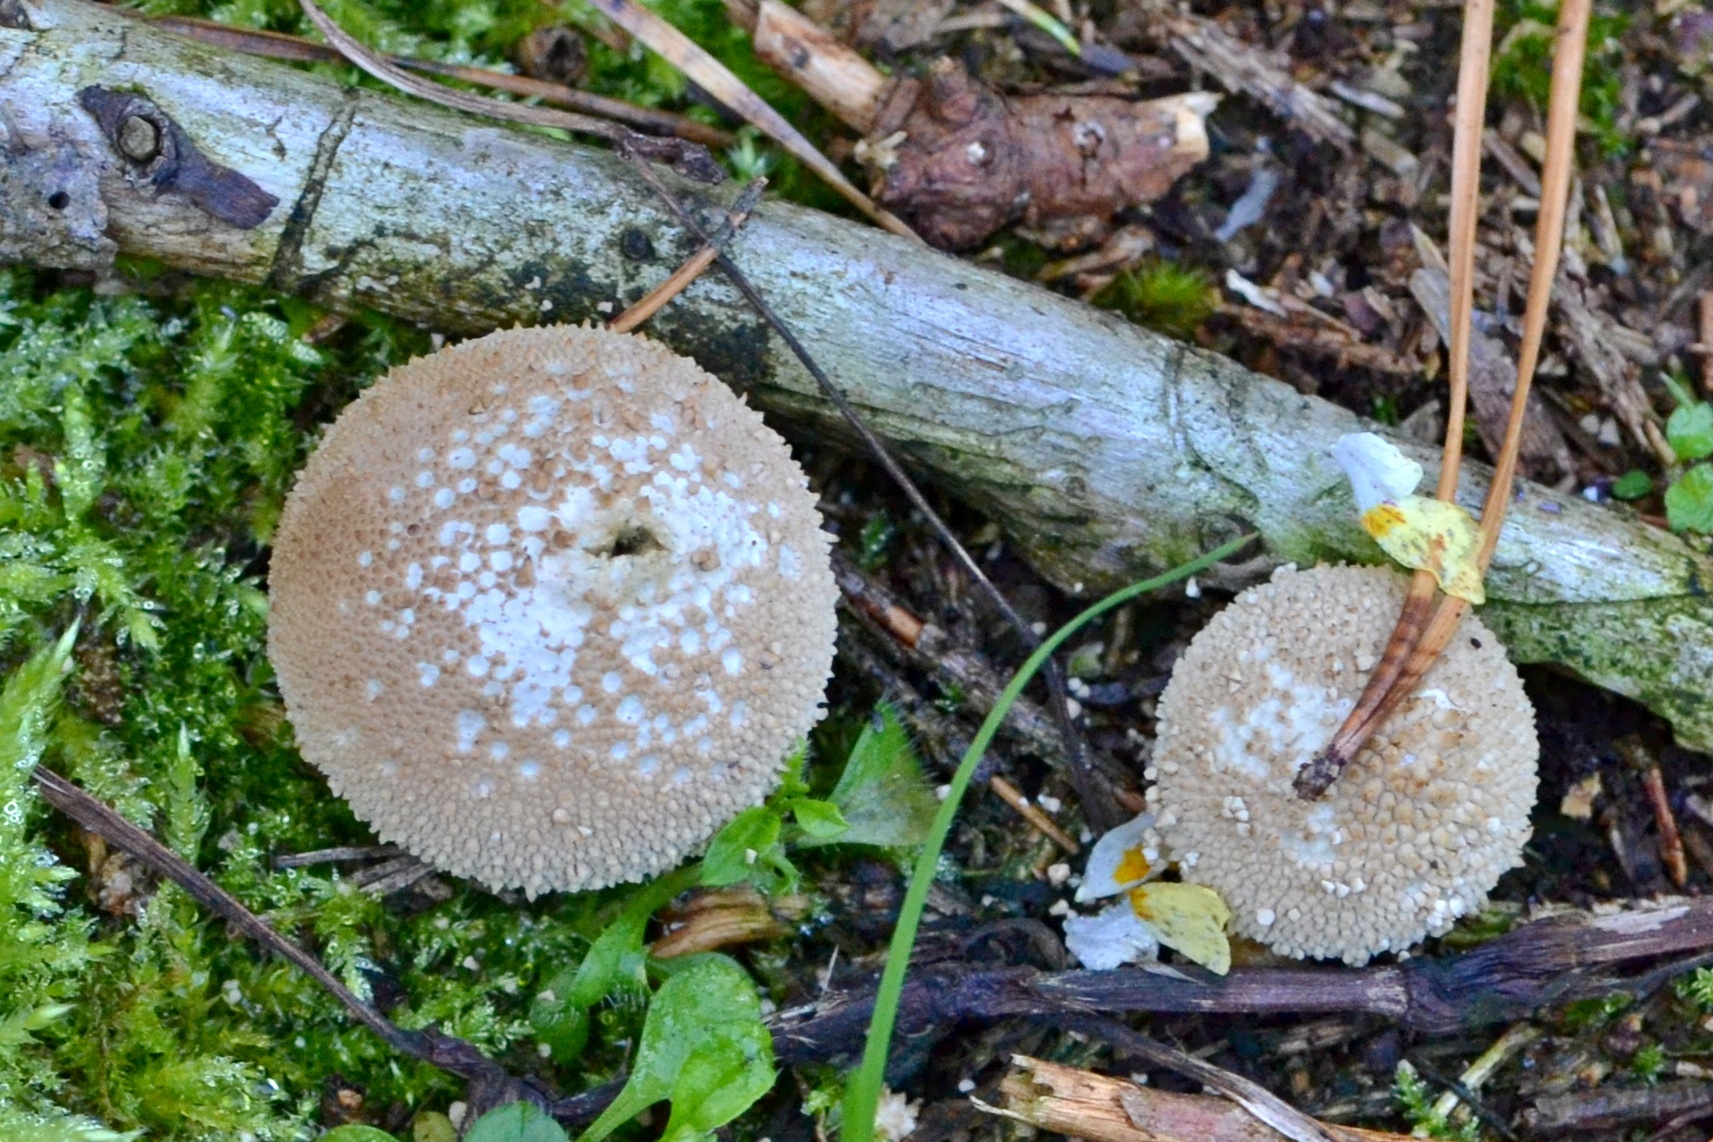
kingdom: Fungi
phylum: Basidiomycota
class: Agaricomycetes
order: Agaricales
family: Lycoperdaceae
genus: Lycoperdon
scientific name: Lycoperdon perlatum
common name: Common puffball
